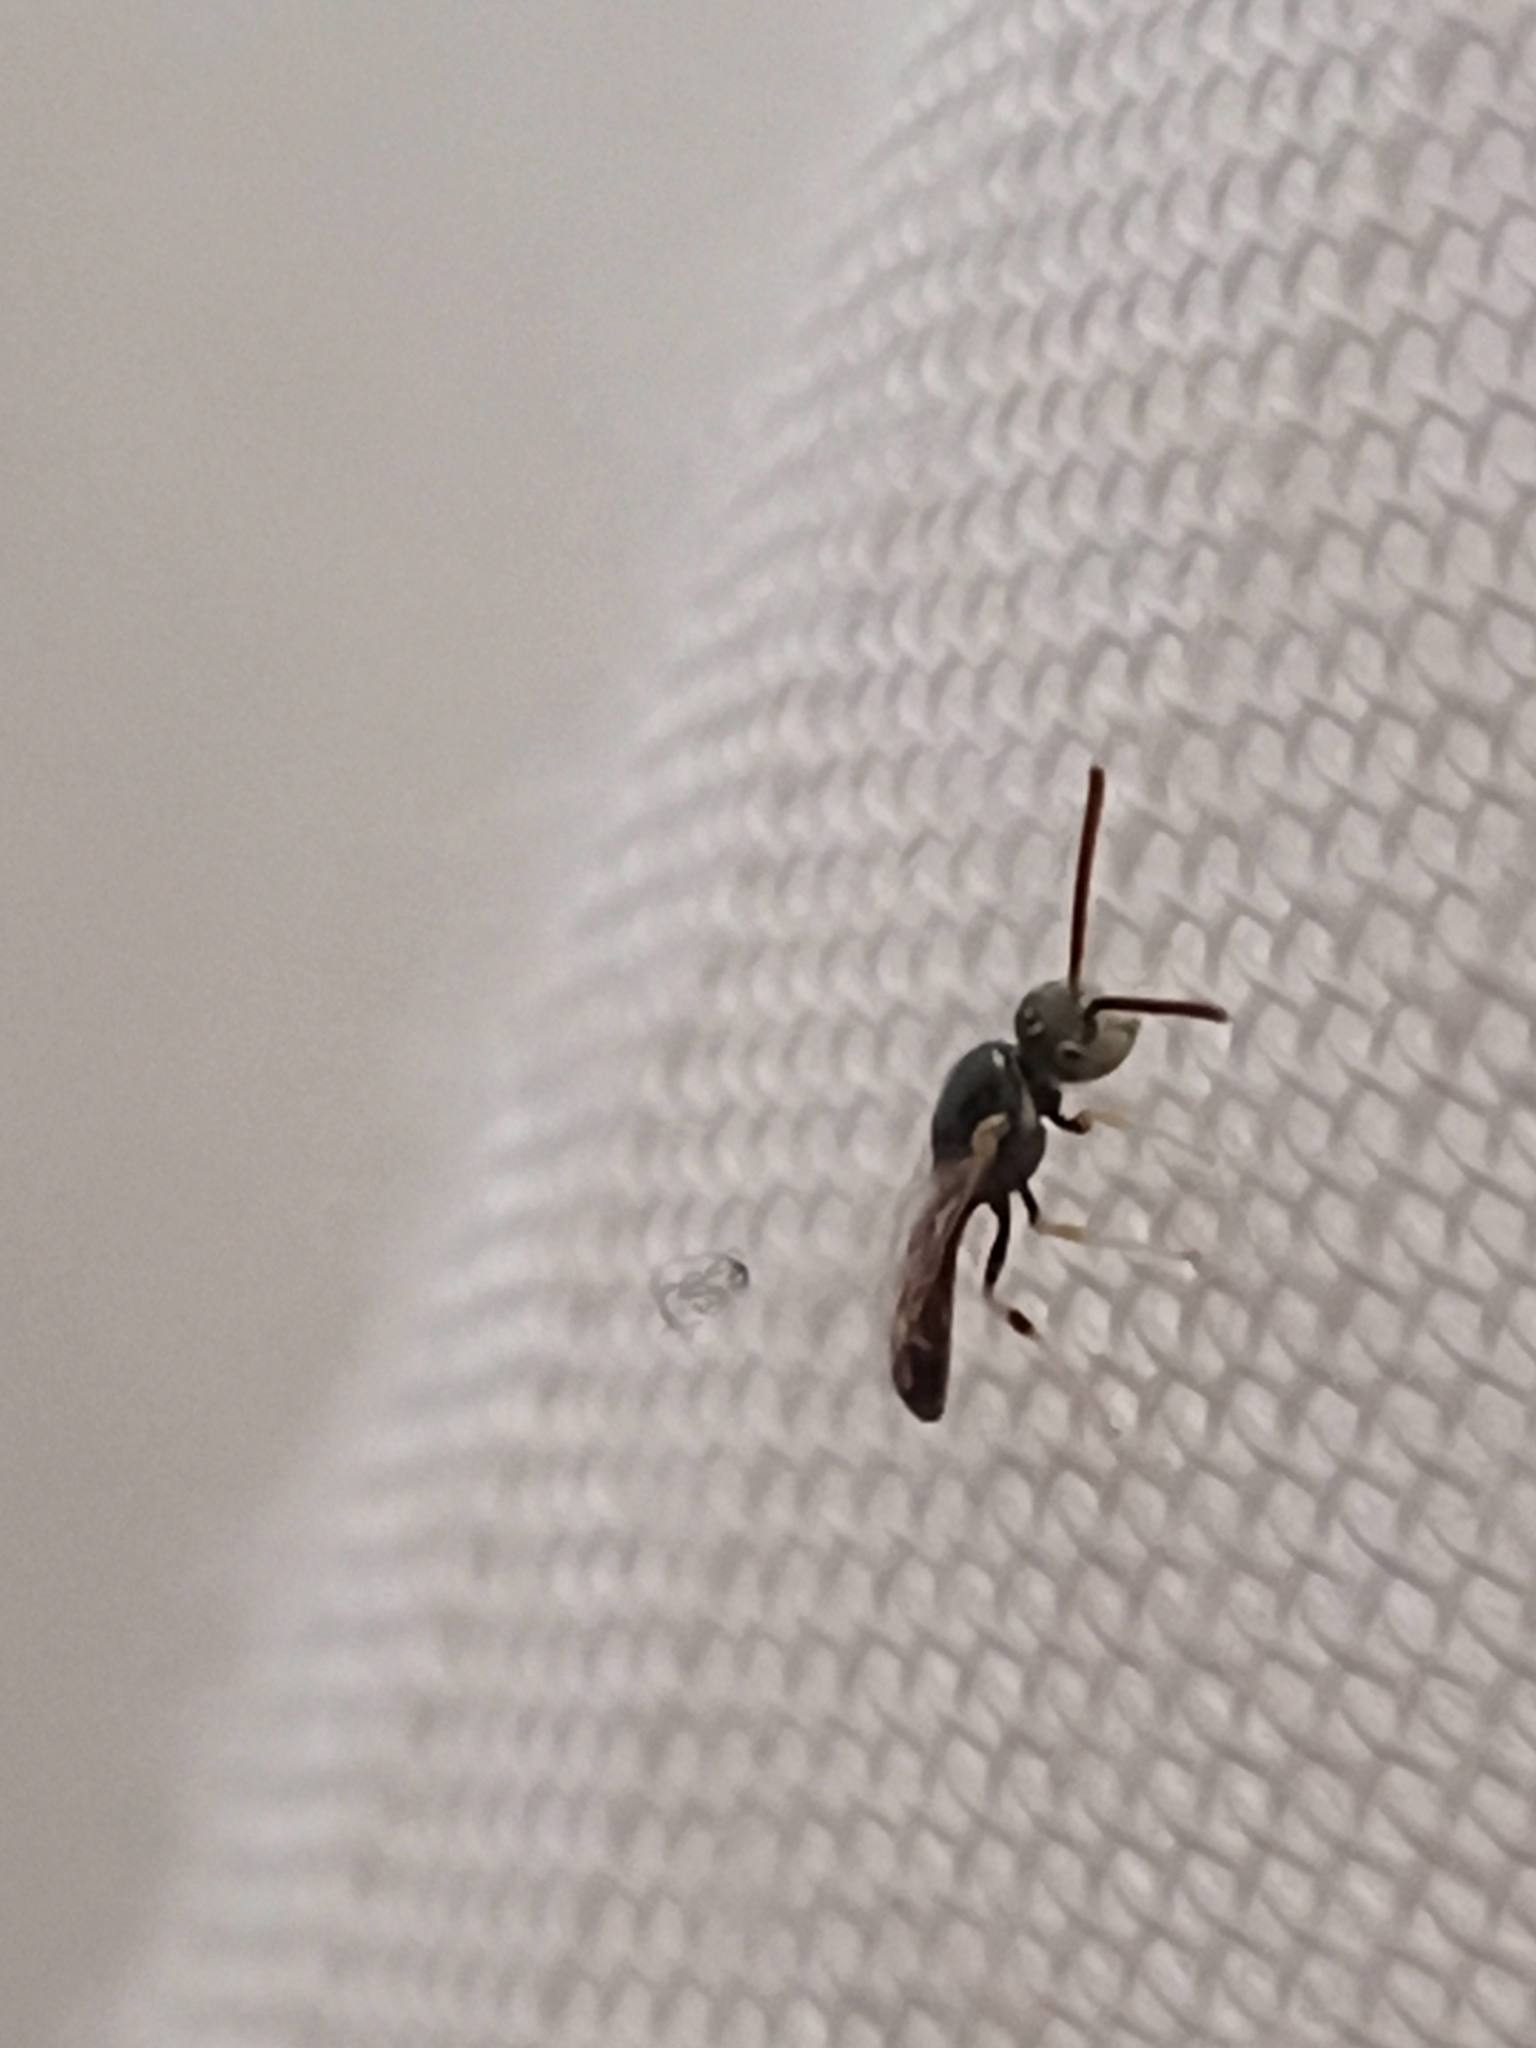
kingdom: Animalia
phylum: Arthropoda
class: Insecta
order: Hymenoptera
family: Halictidae
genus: Ceylalictus
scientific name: Ceylalictus variegatus
